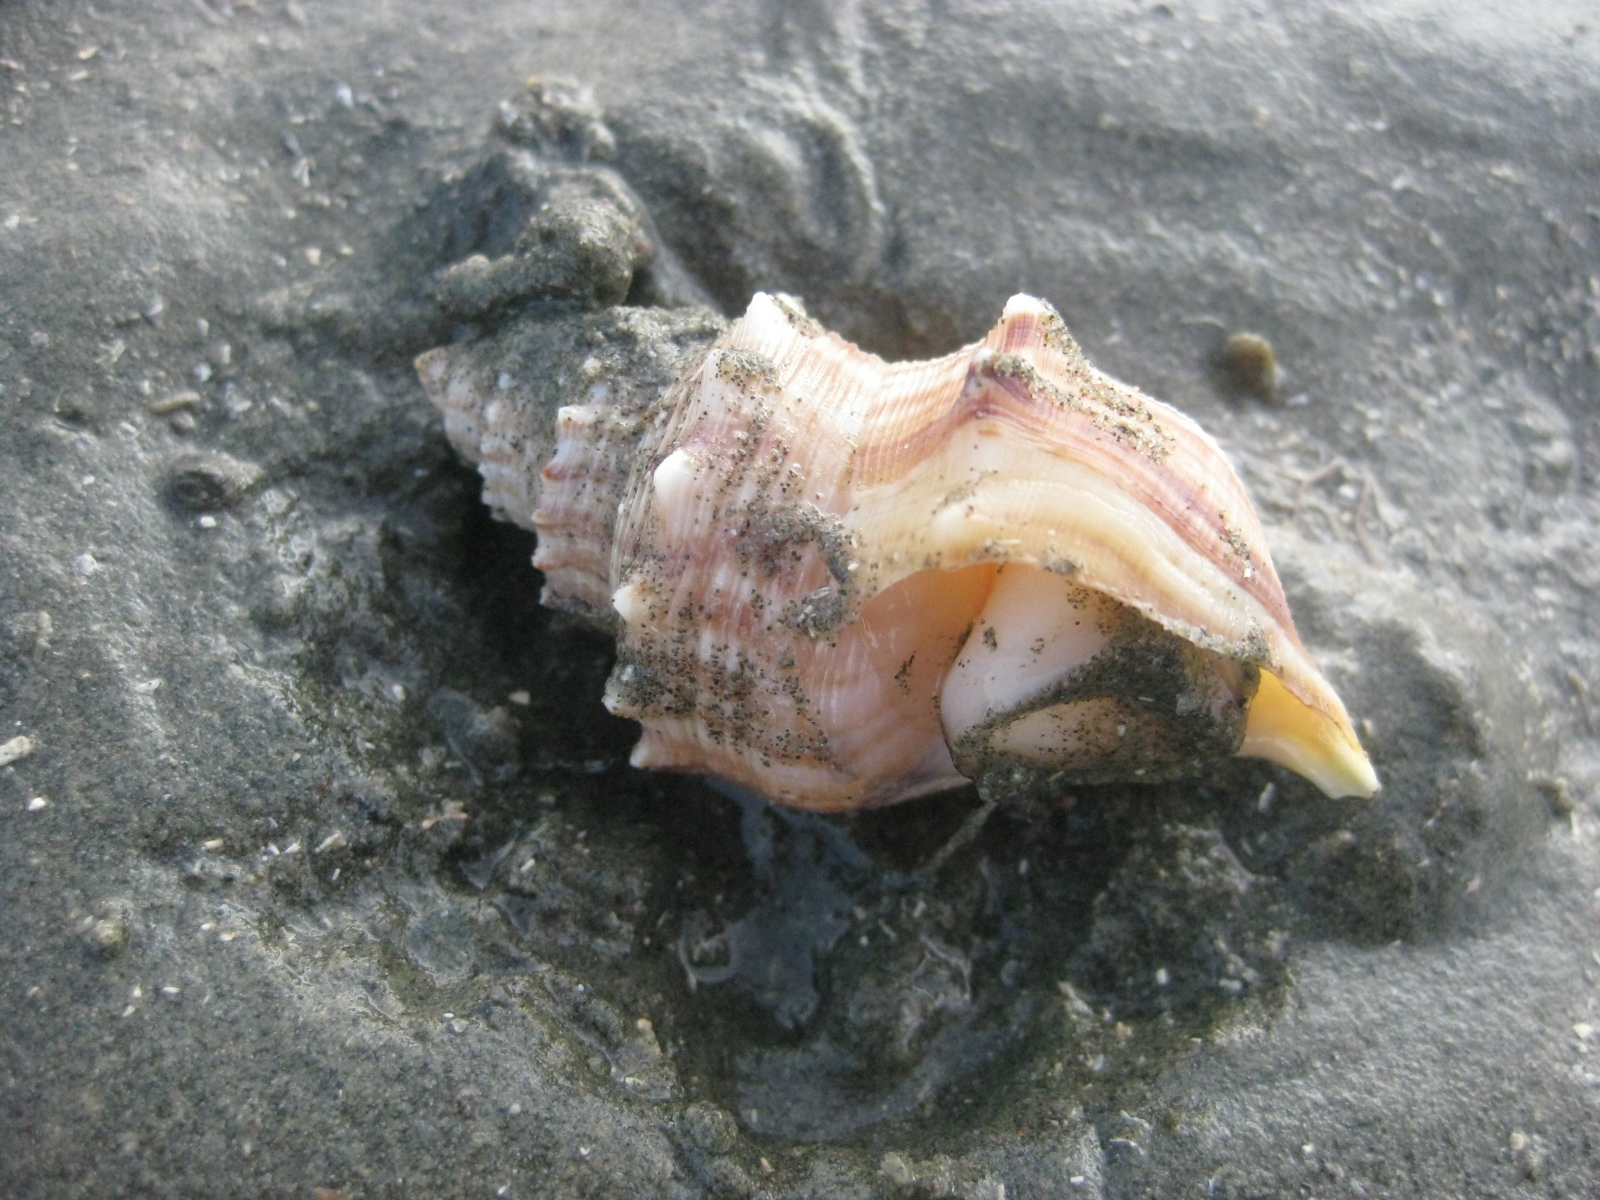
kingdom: Animalia
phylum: Mollusca
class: Gastropoda
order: Littorinimorpha
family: Struthiolariidae
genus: Struthiolaria
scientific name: Struthiolaria papulosa
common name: Large ostrich foot
